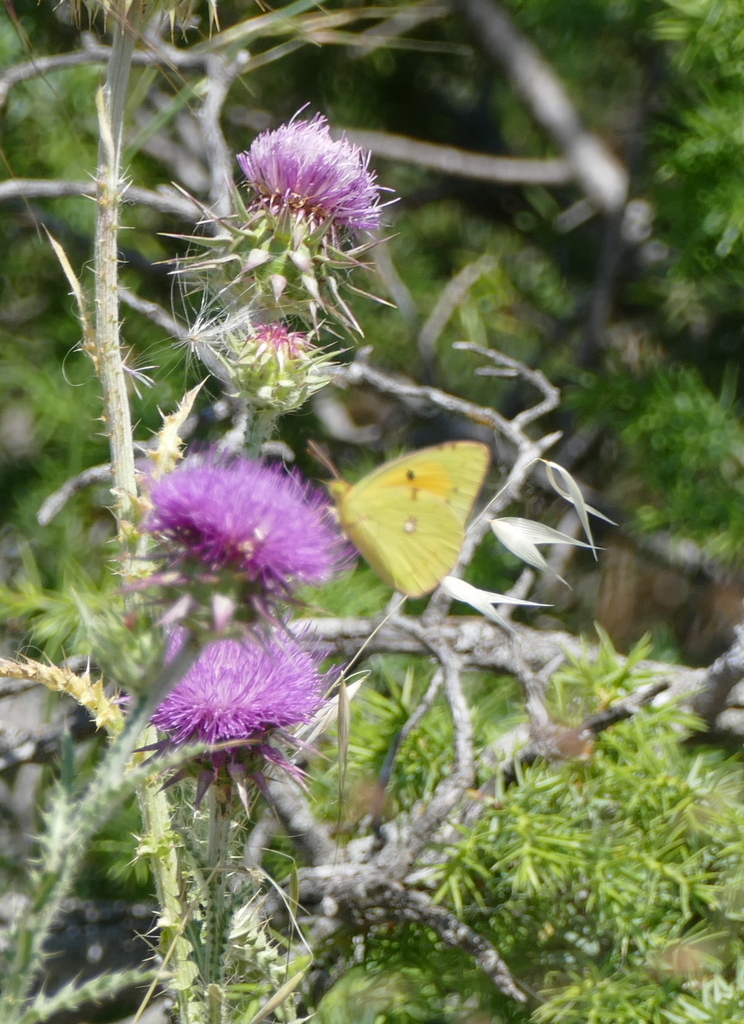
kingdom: Animalia
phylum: Arthropoda
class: Insecta
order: Lepidoptera
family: Pieridae
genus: Colias
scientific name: Colias croceus
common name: Clouded yellow
